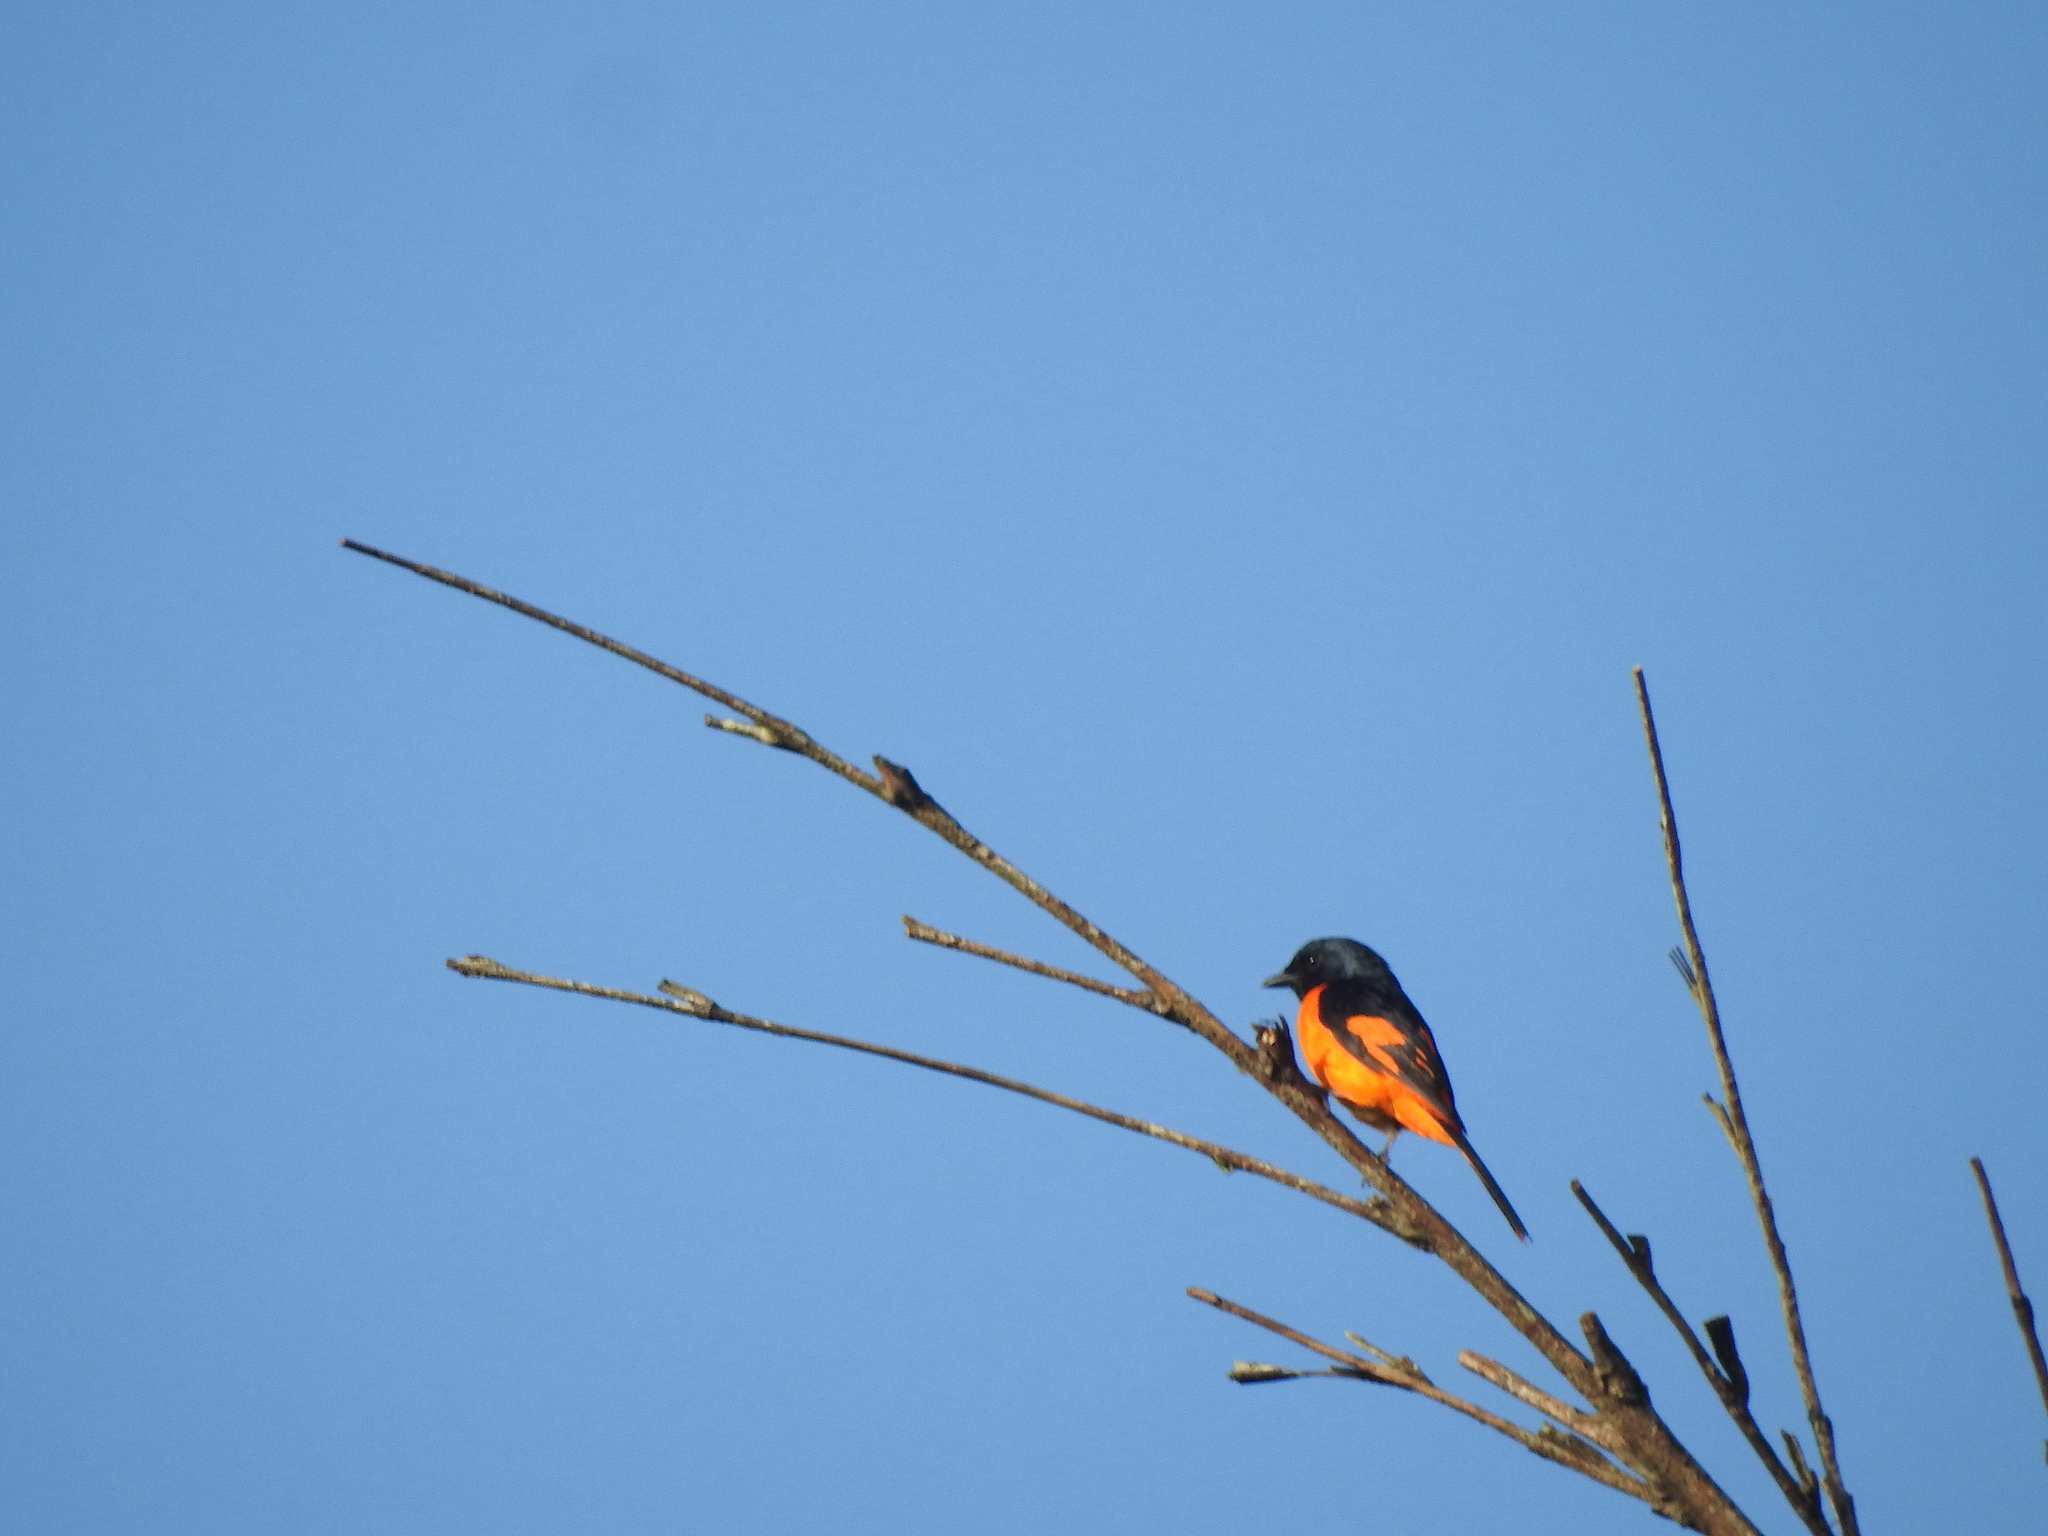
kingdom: Animalia
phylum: Chordata
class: Aves
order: Passeriformes
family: Campephagidae
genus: Pericrocotus
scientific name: Pericrocotus flammeus
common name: Orange minivet
